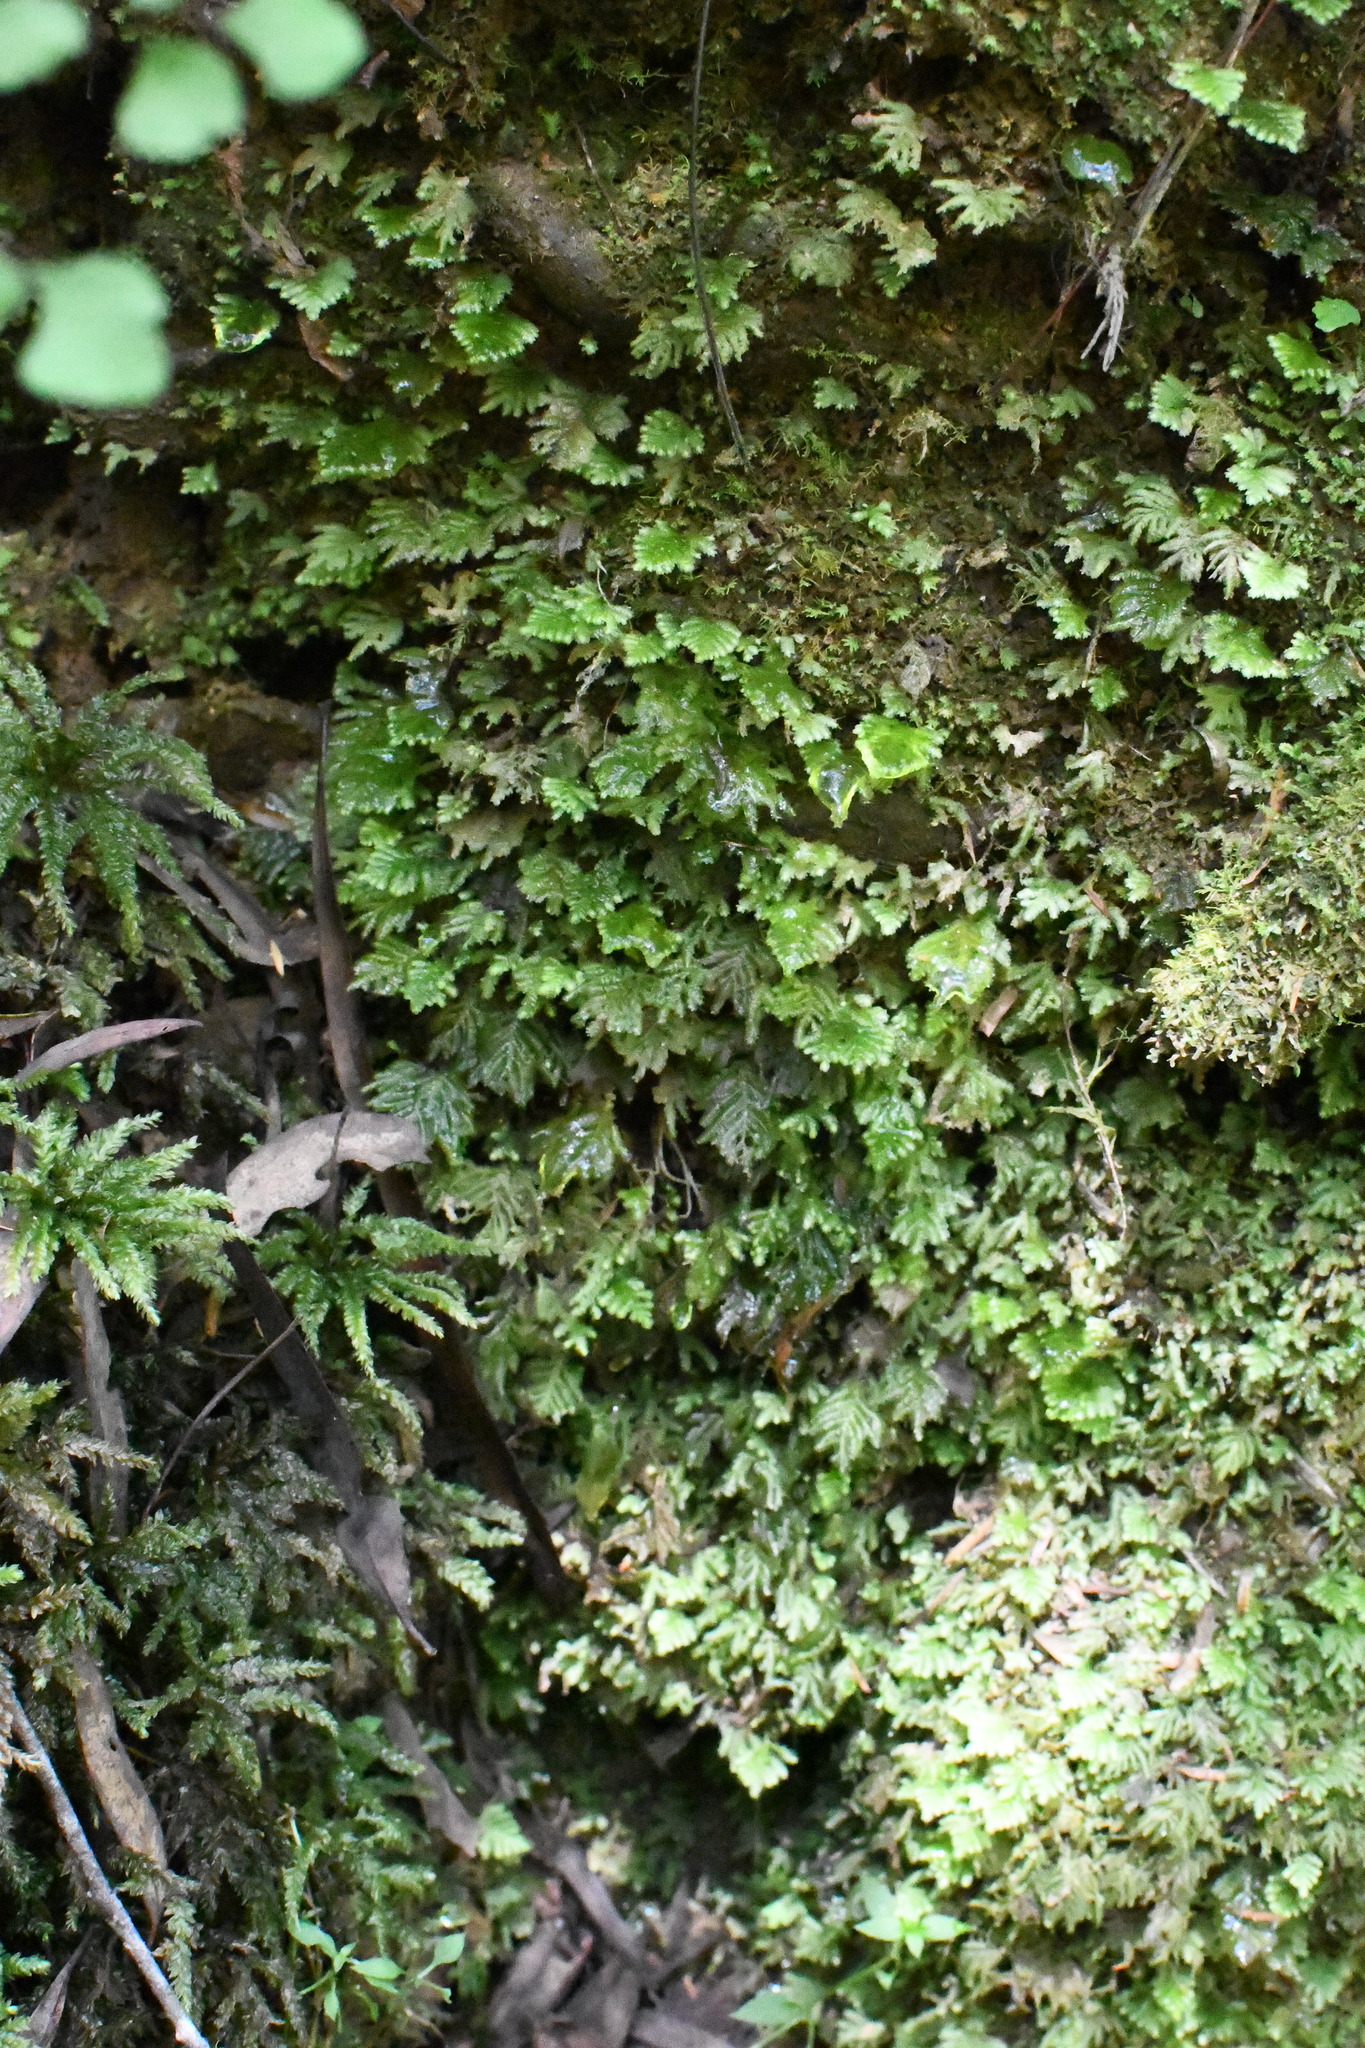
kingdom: Plantae
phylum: Bryophyta
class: Bryopsida
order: Hypopterygiales
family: Hypopterygiaceae
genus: Lopidium
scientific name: Lopidium concinnum
